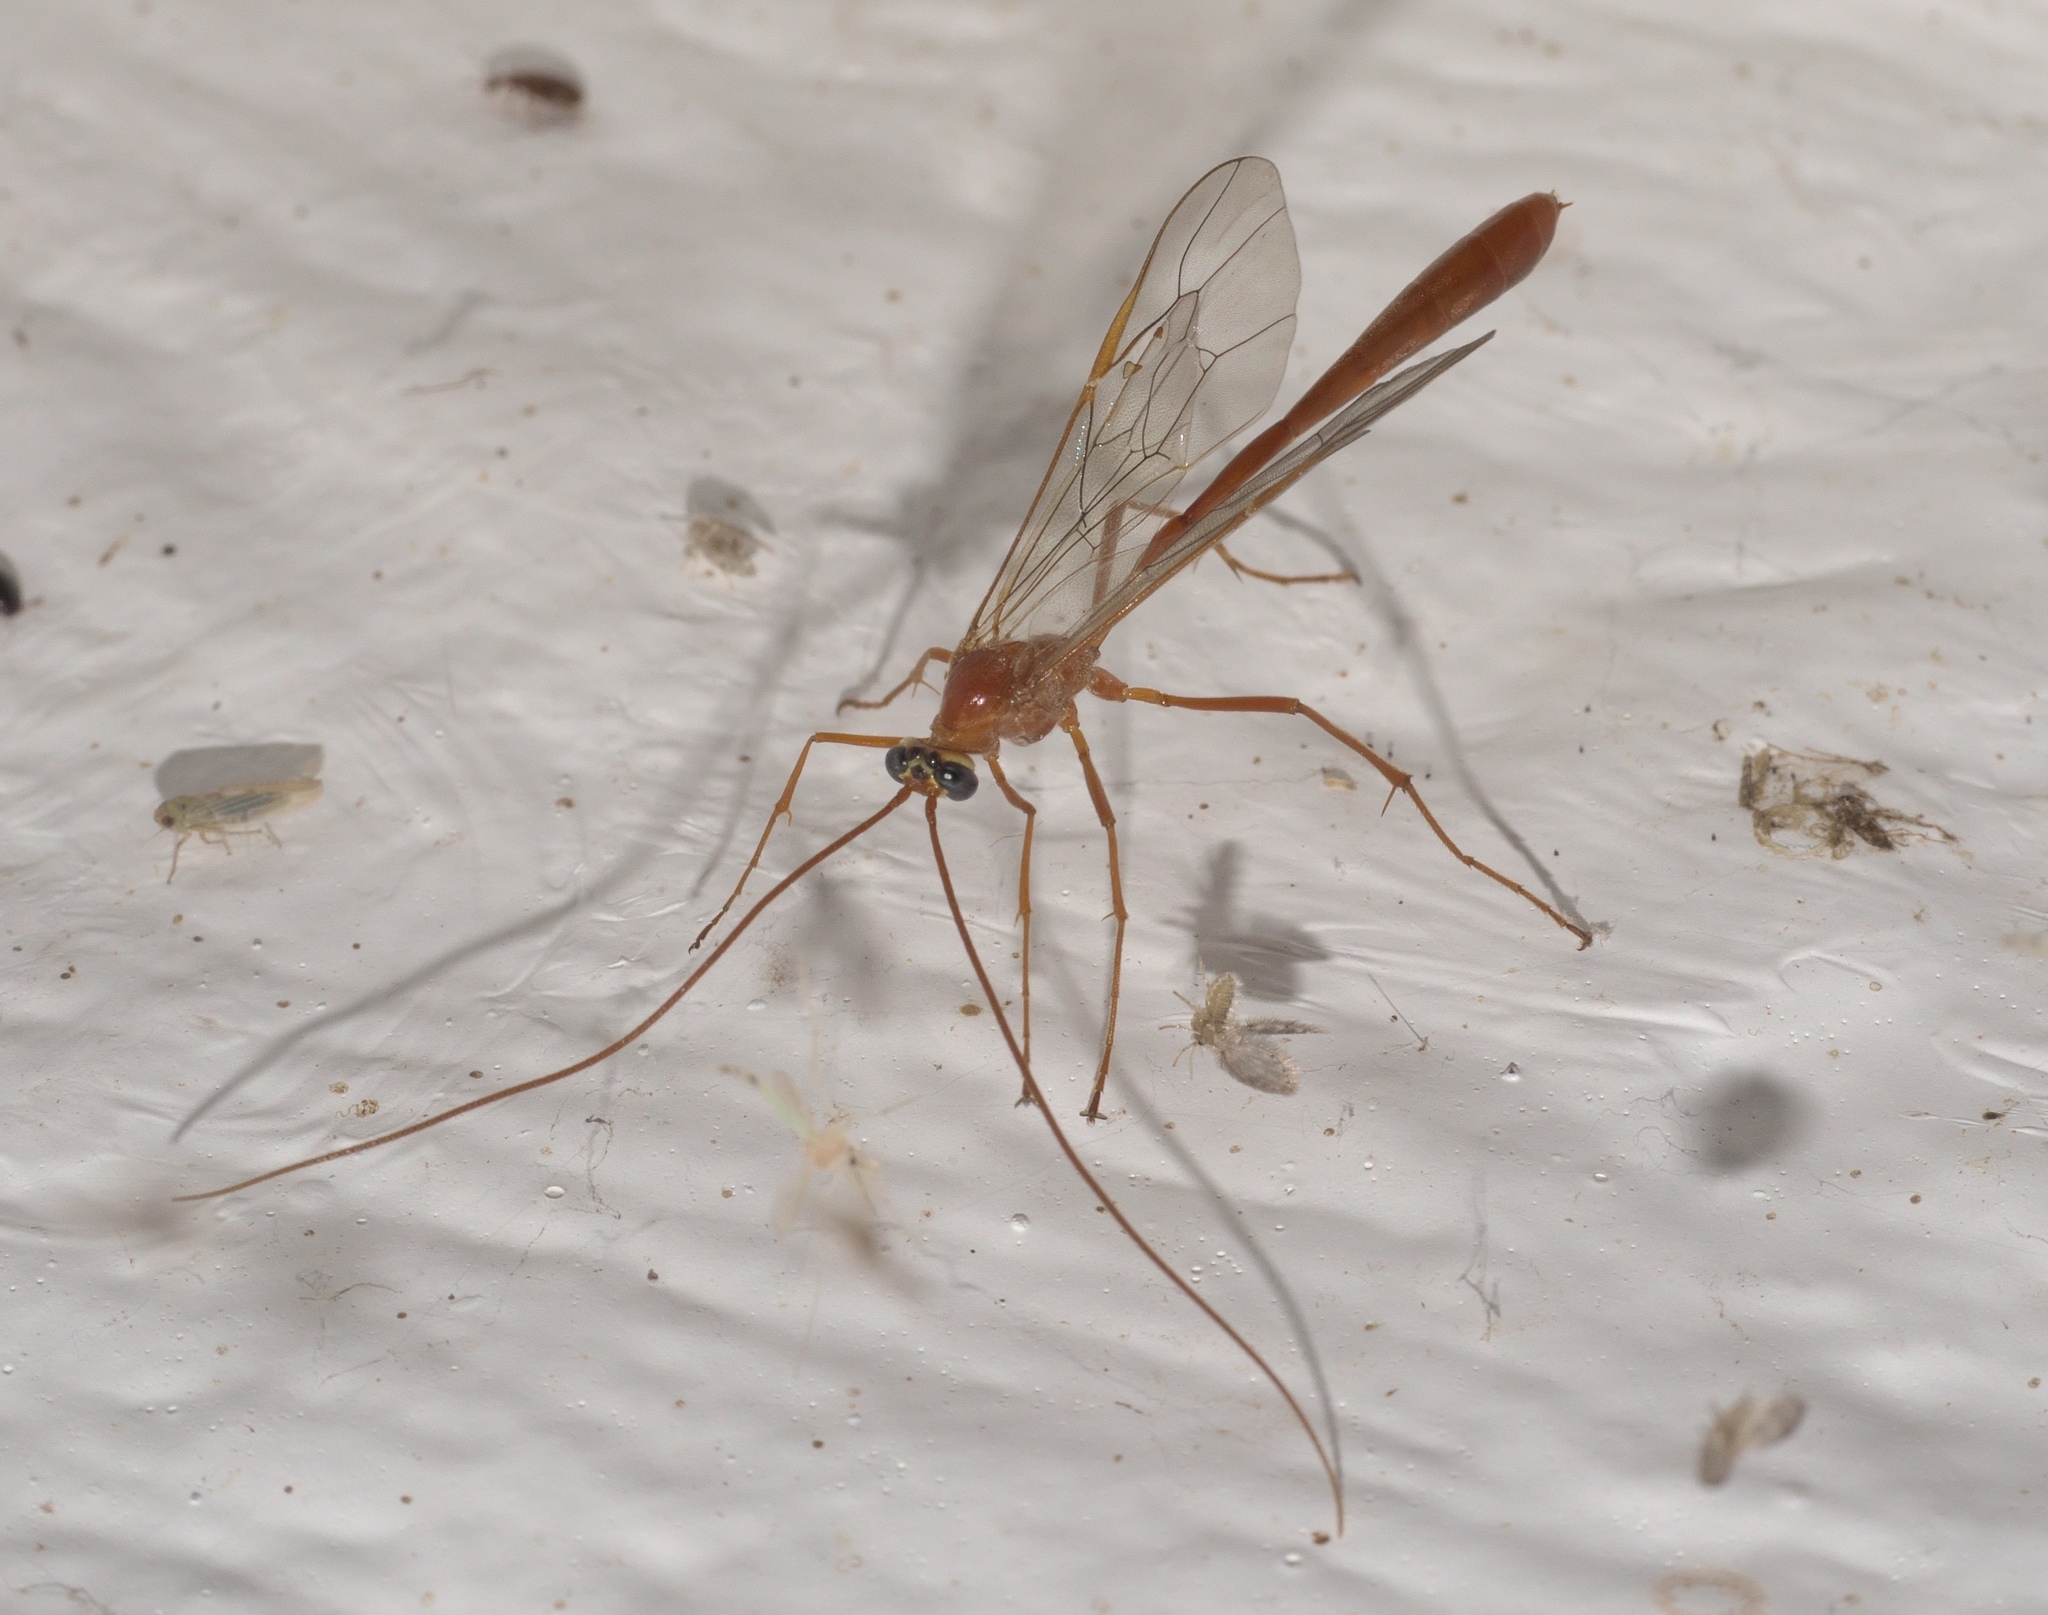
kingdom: Animalia
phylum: Arthropoda
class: Insecta
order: Hymenoptera
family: Ichneumonidae
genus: Enicospilus
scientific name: Enicospilus purgatus
